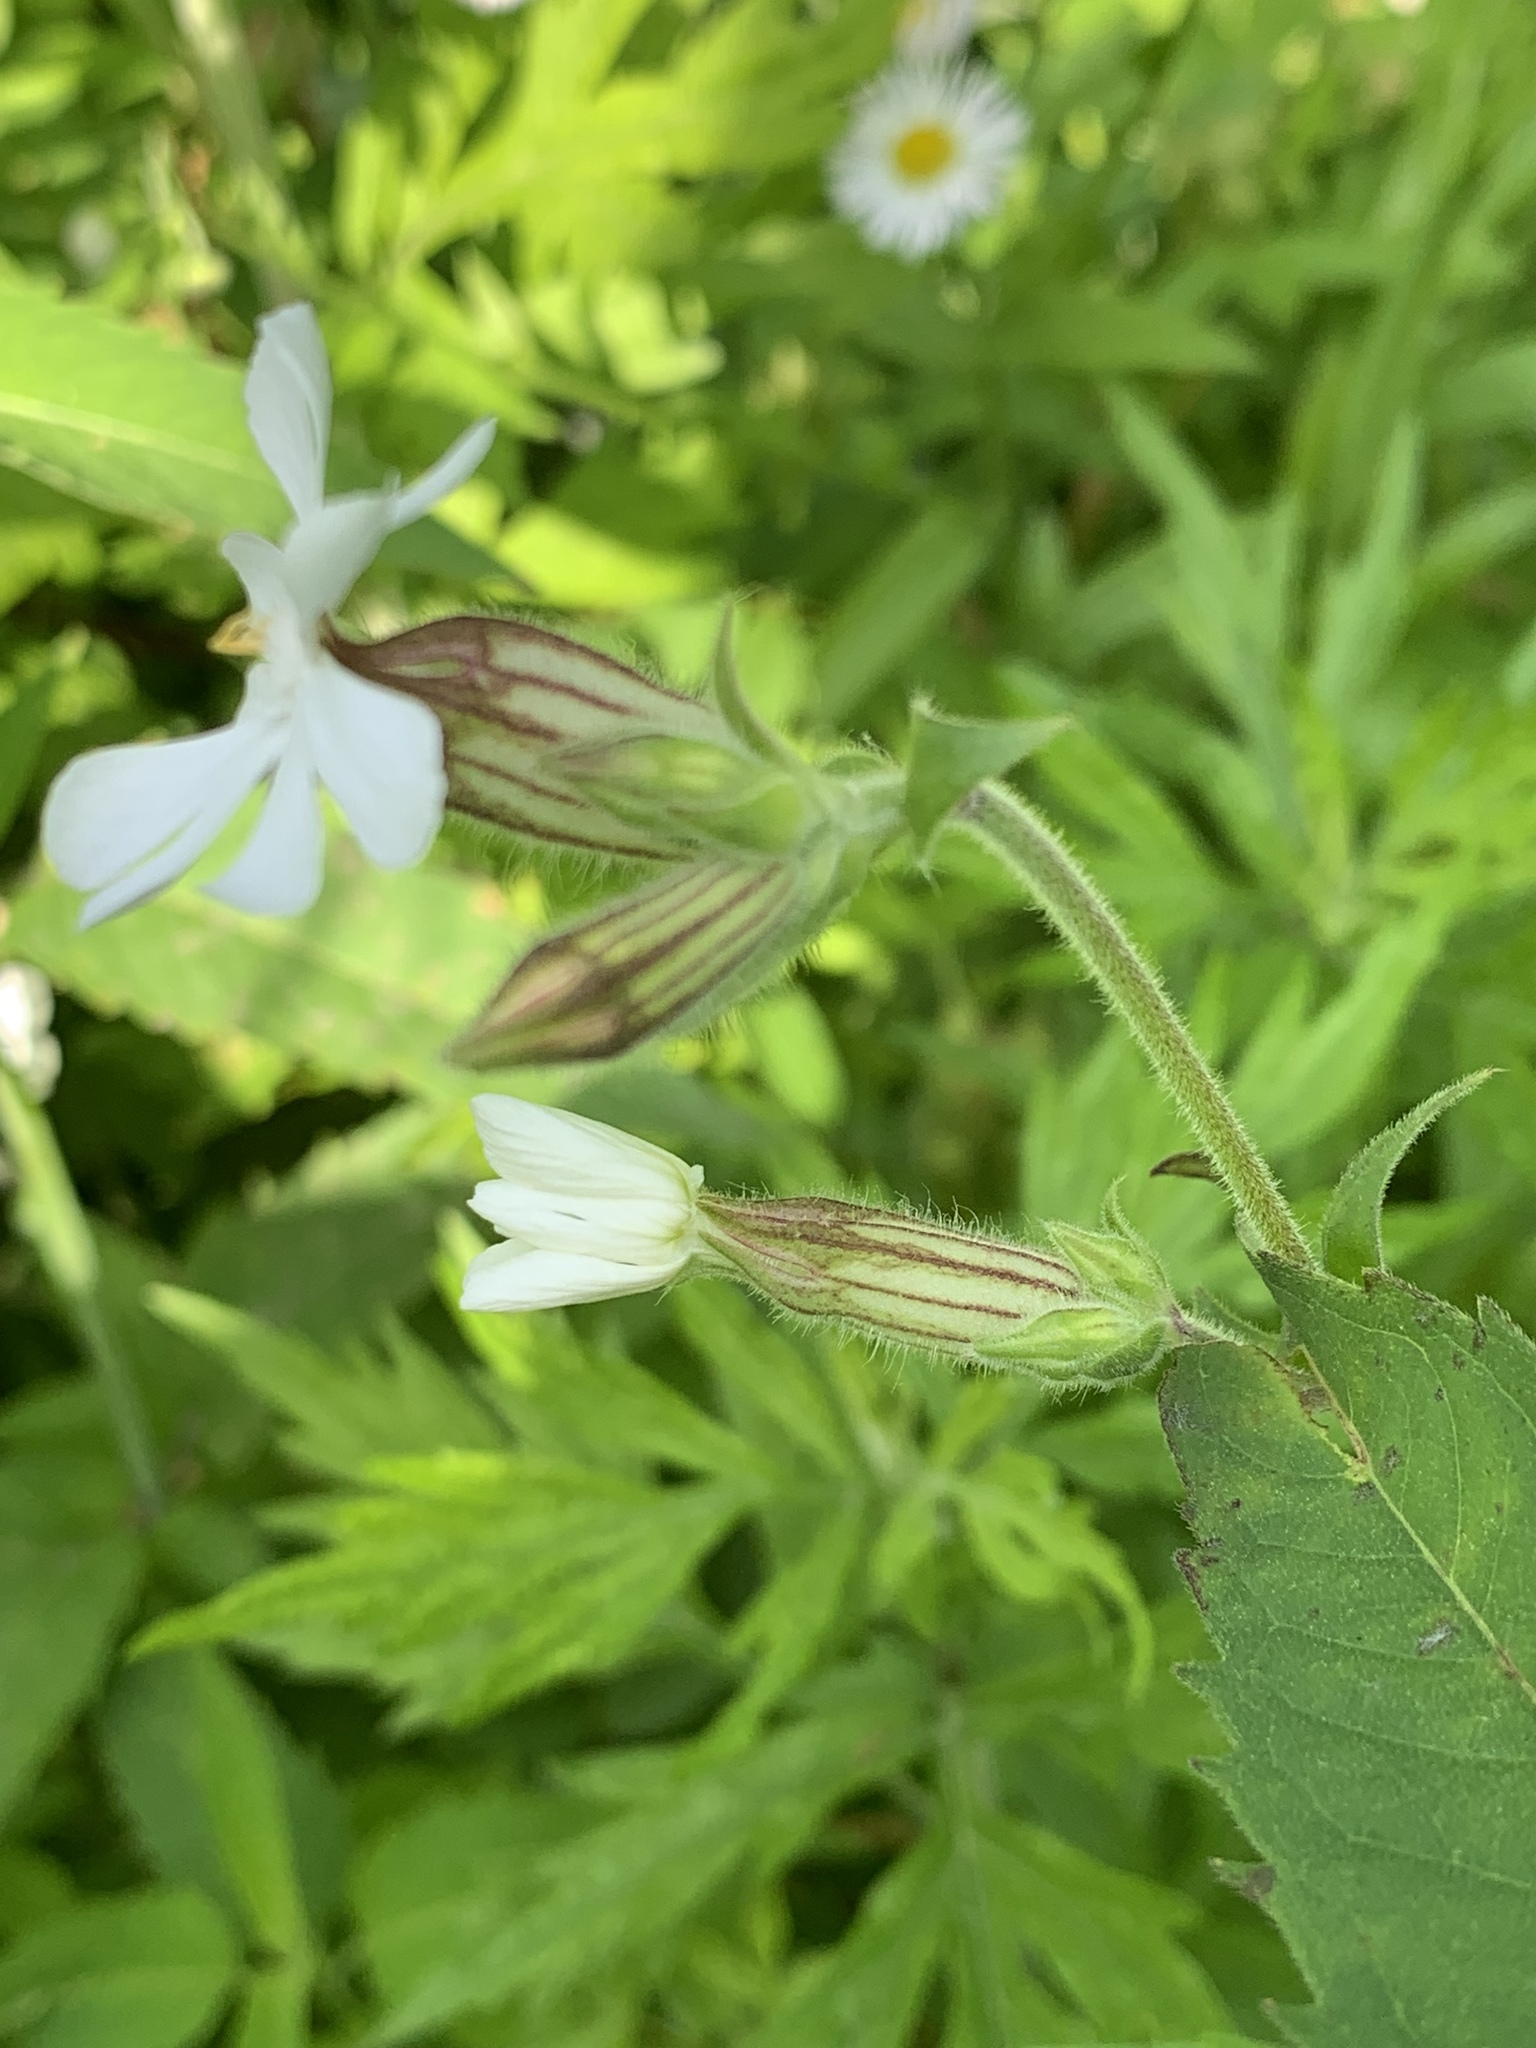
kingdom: Plantae
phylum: Tracheophyta
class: Magnoliopsida
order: Caryophyllales
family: Caryophyllaceae
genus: Silene
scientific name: Silene latifolia
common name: White campion
